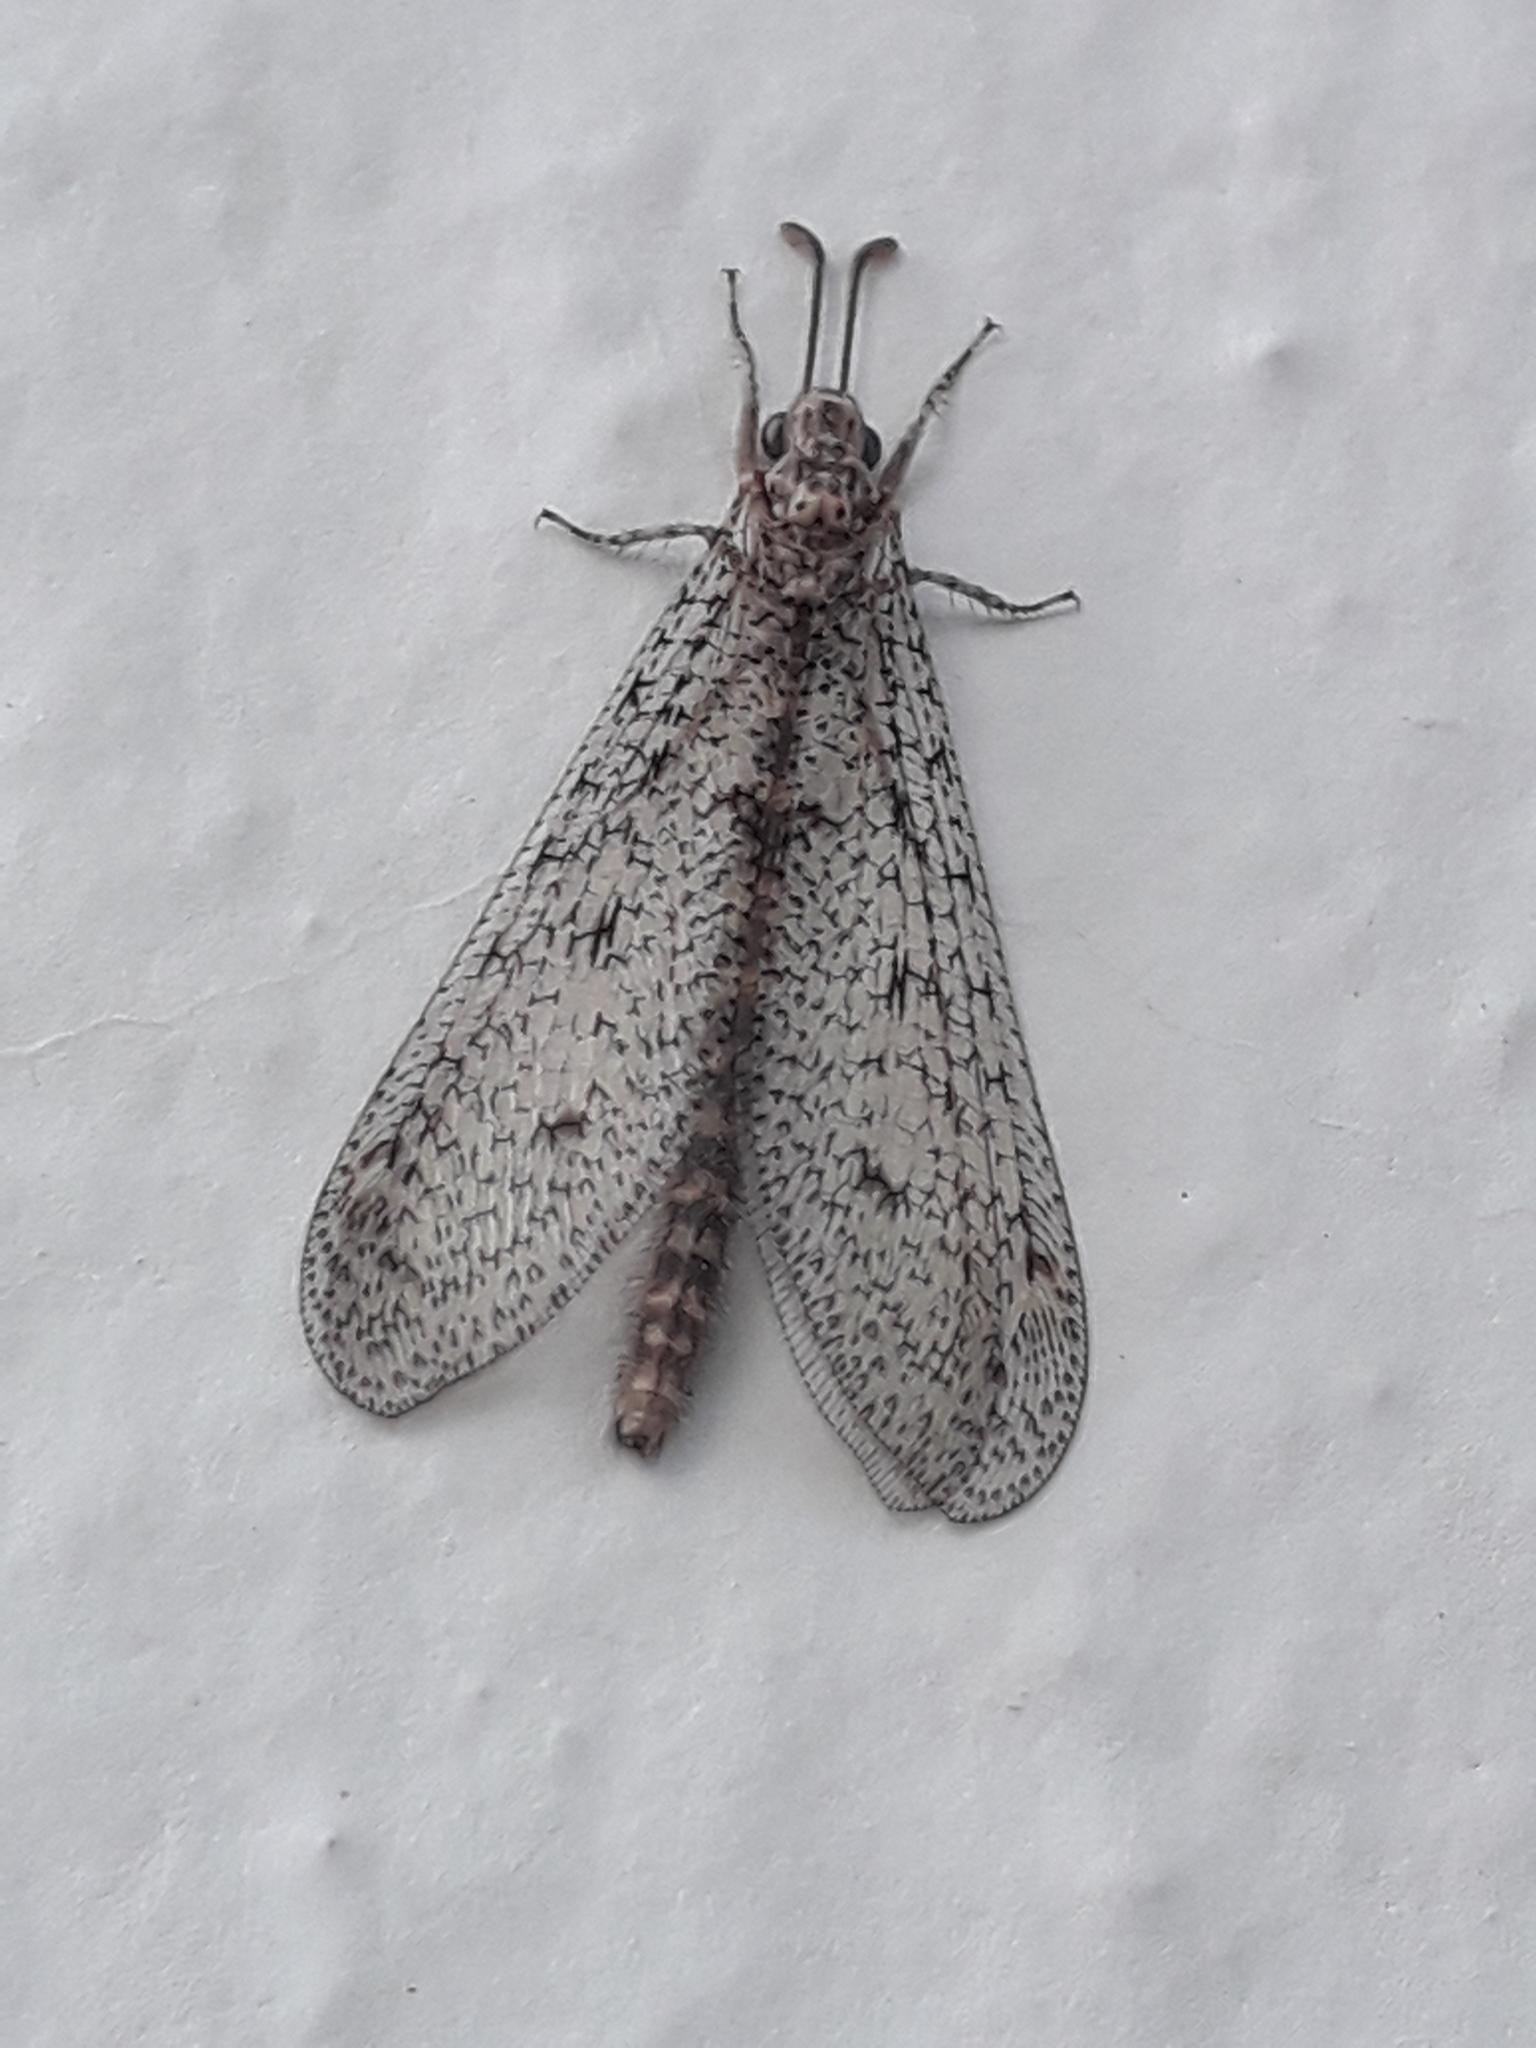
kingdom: Animalia
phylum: Arthropoda
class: Insecta
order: Neuroptera
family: Myrmeleontidae
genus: Brachynemurus
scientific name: Brachynemurus sackeni
